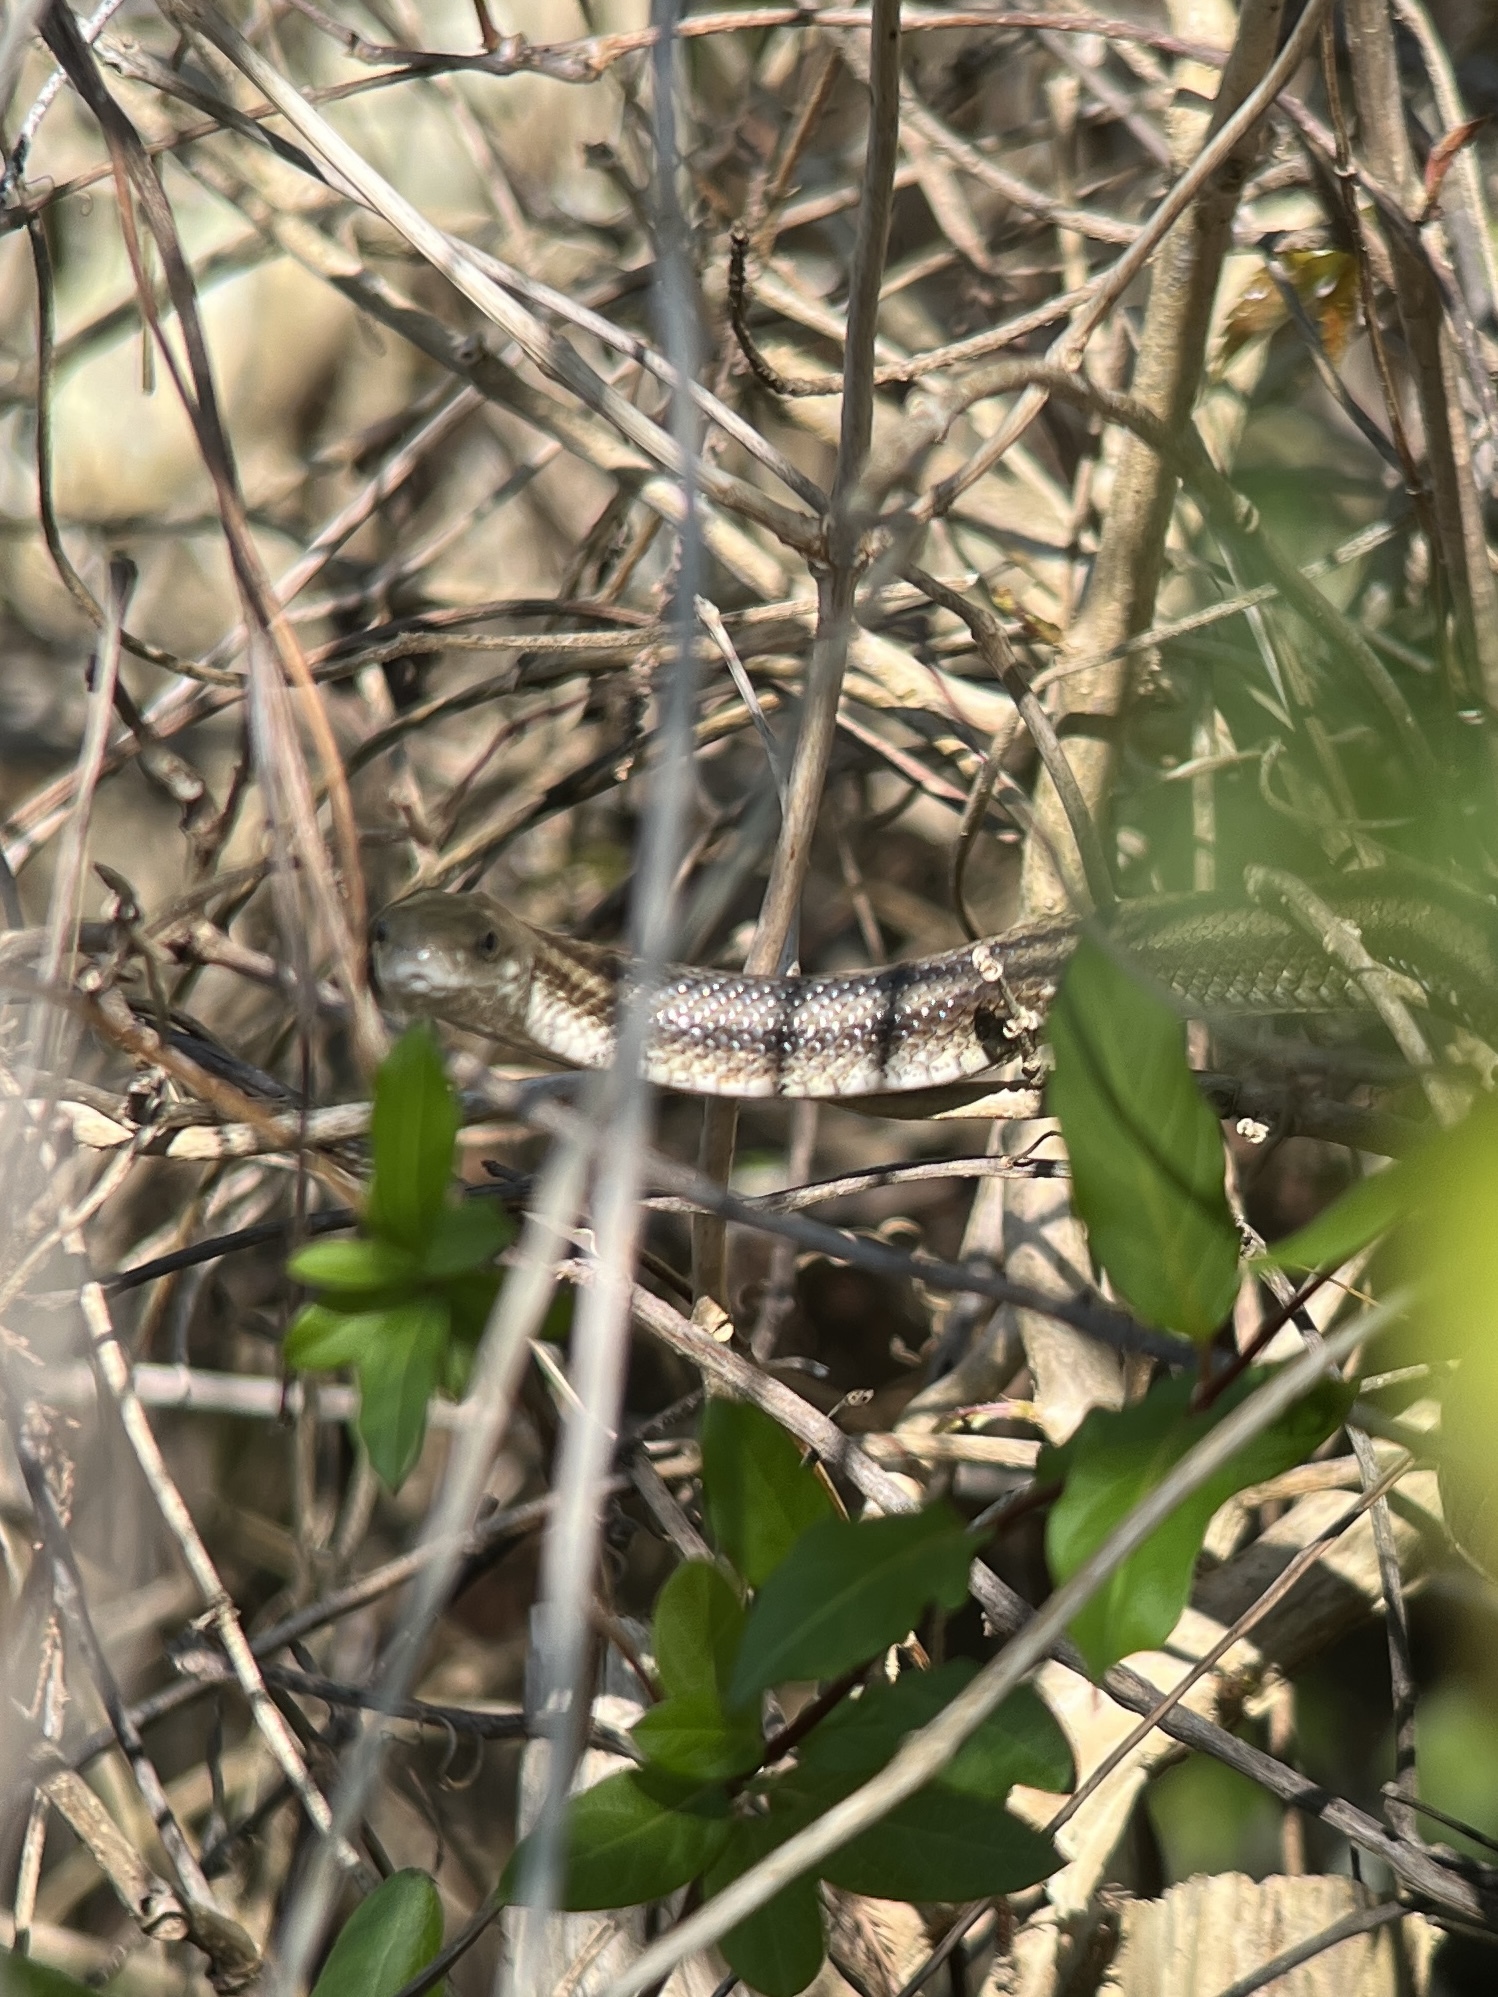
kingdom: Animalia
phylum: Chordata
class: Squamata
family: Colubridae
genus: Pantherophis
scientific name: Pantherophis alleghaniensis
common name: Eastern rat snake
